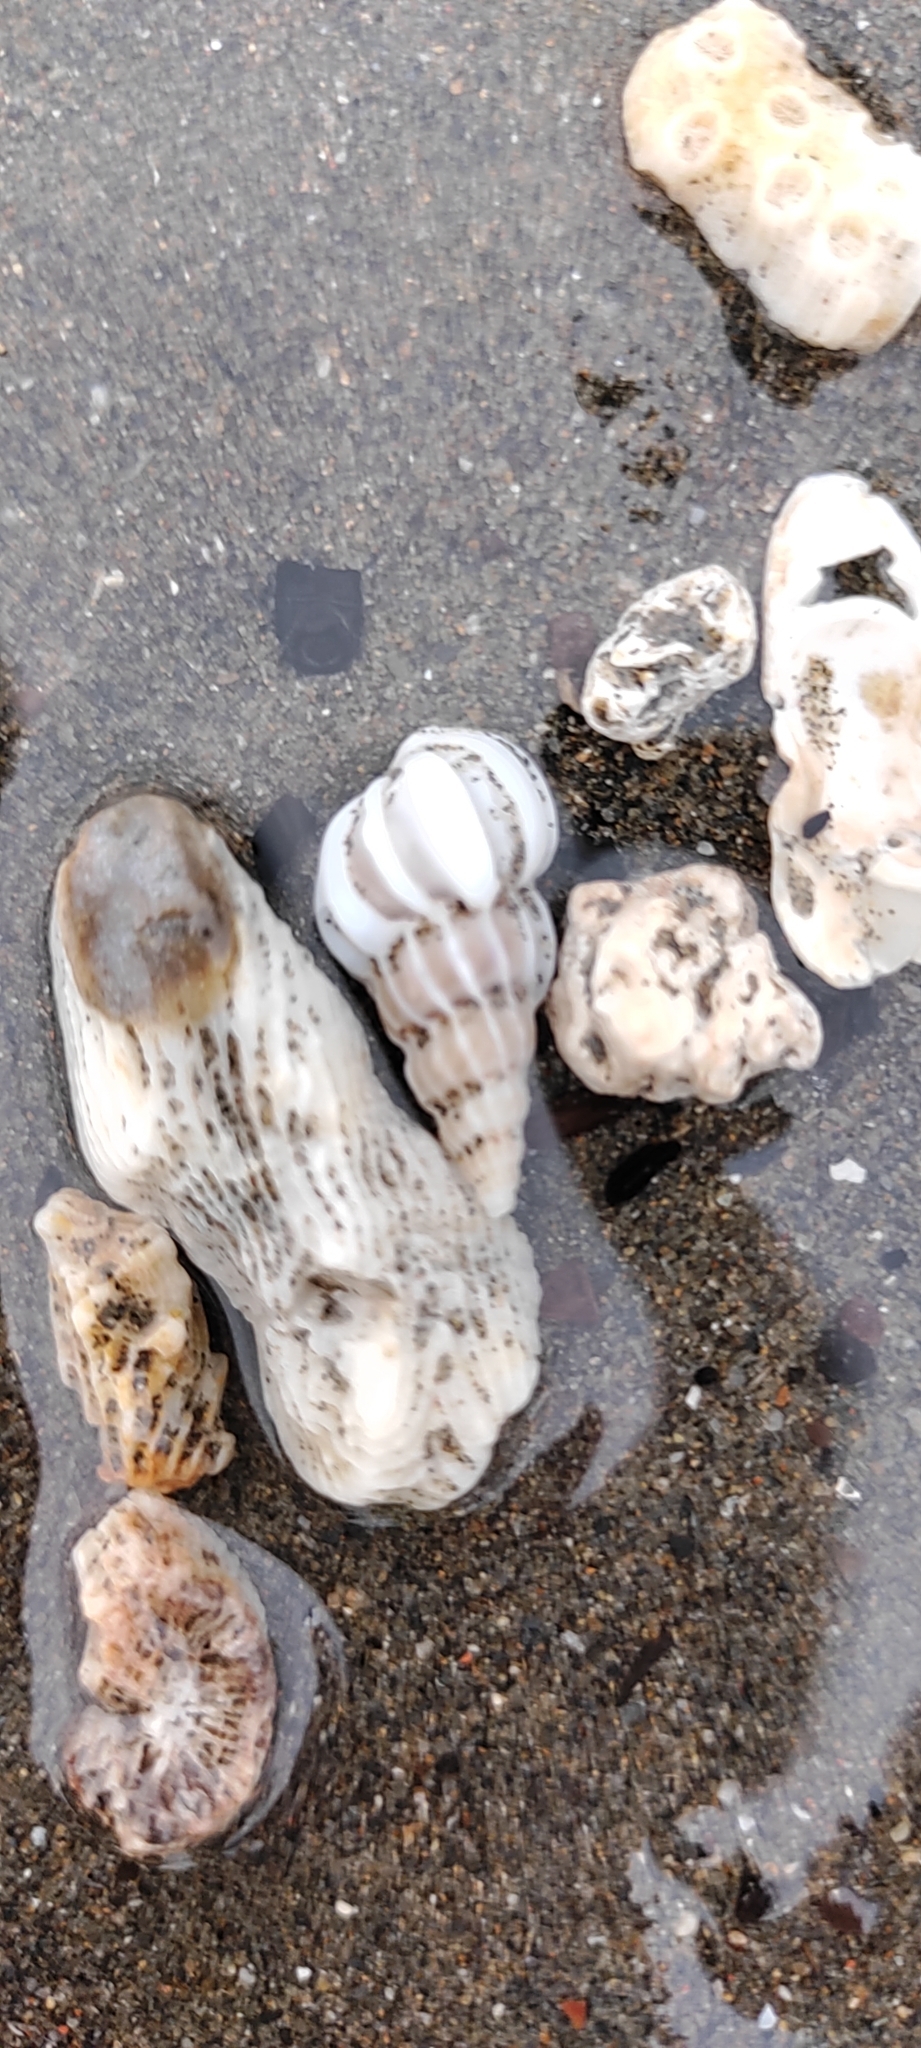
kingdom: Animalia
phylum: Mollusca
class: Gastropoda
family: Epitoniidae
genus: Gyroscala
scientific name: Gyroscala commutata
